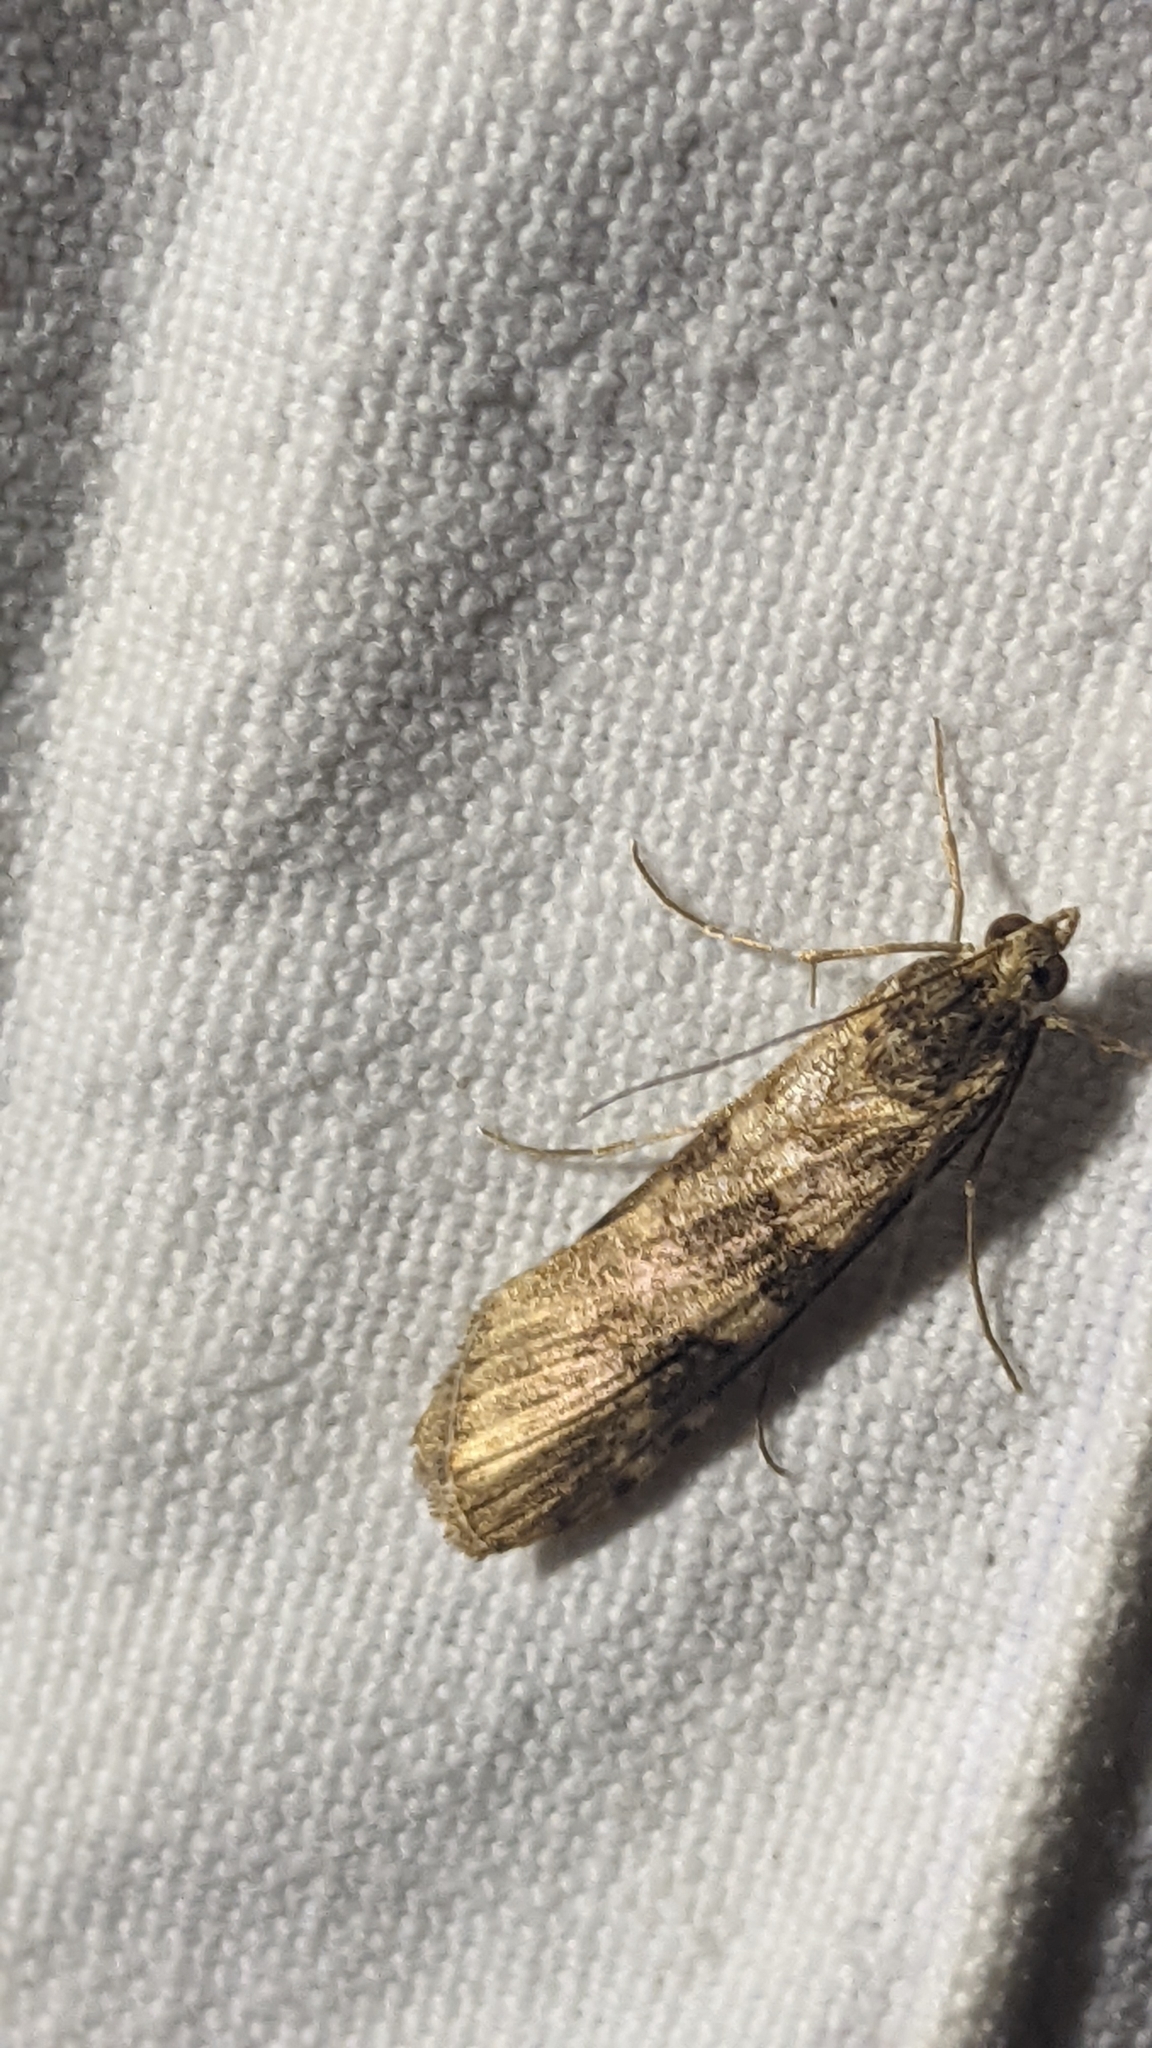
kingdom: Animalia
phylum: Arthropoda
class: Insecta
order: Lepidoptera
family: Crambidae
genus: Nomophila
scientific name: Nomophila noctuella
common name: Rush veneer
